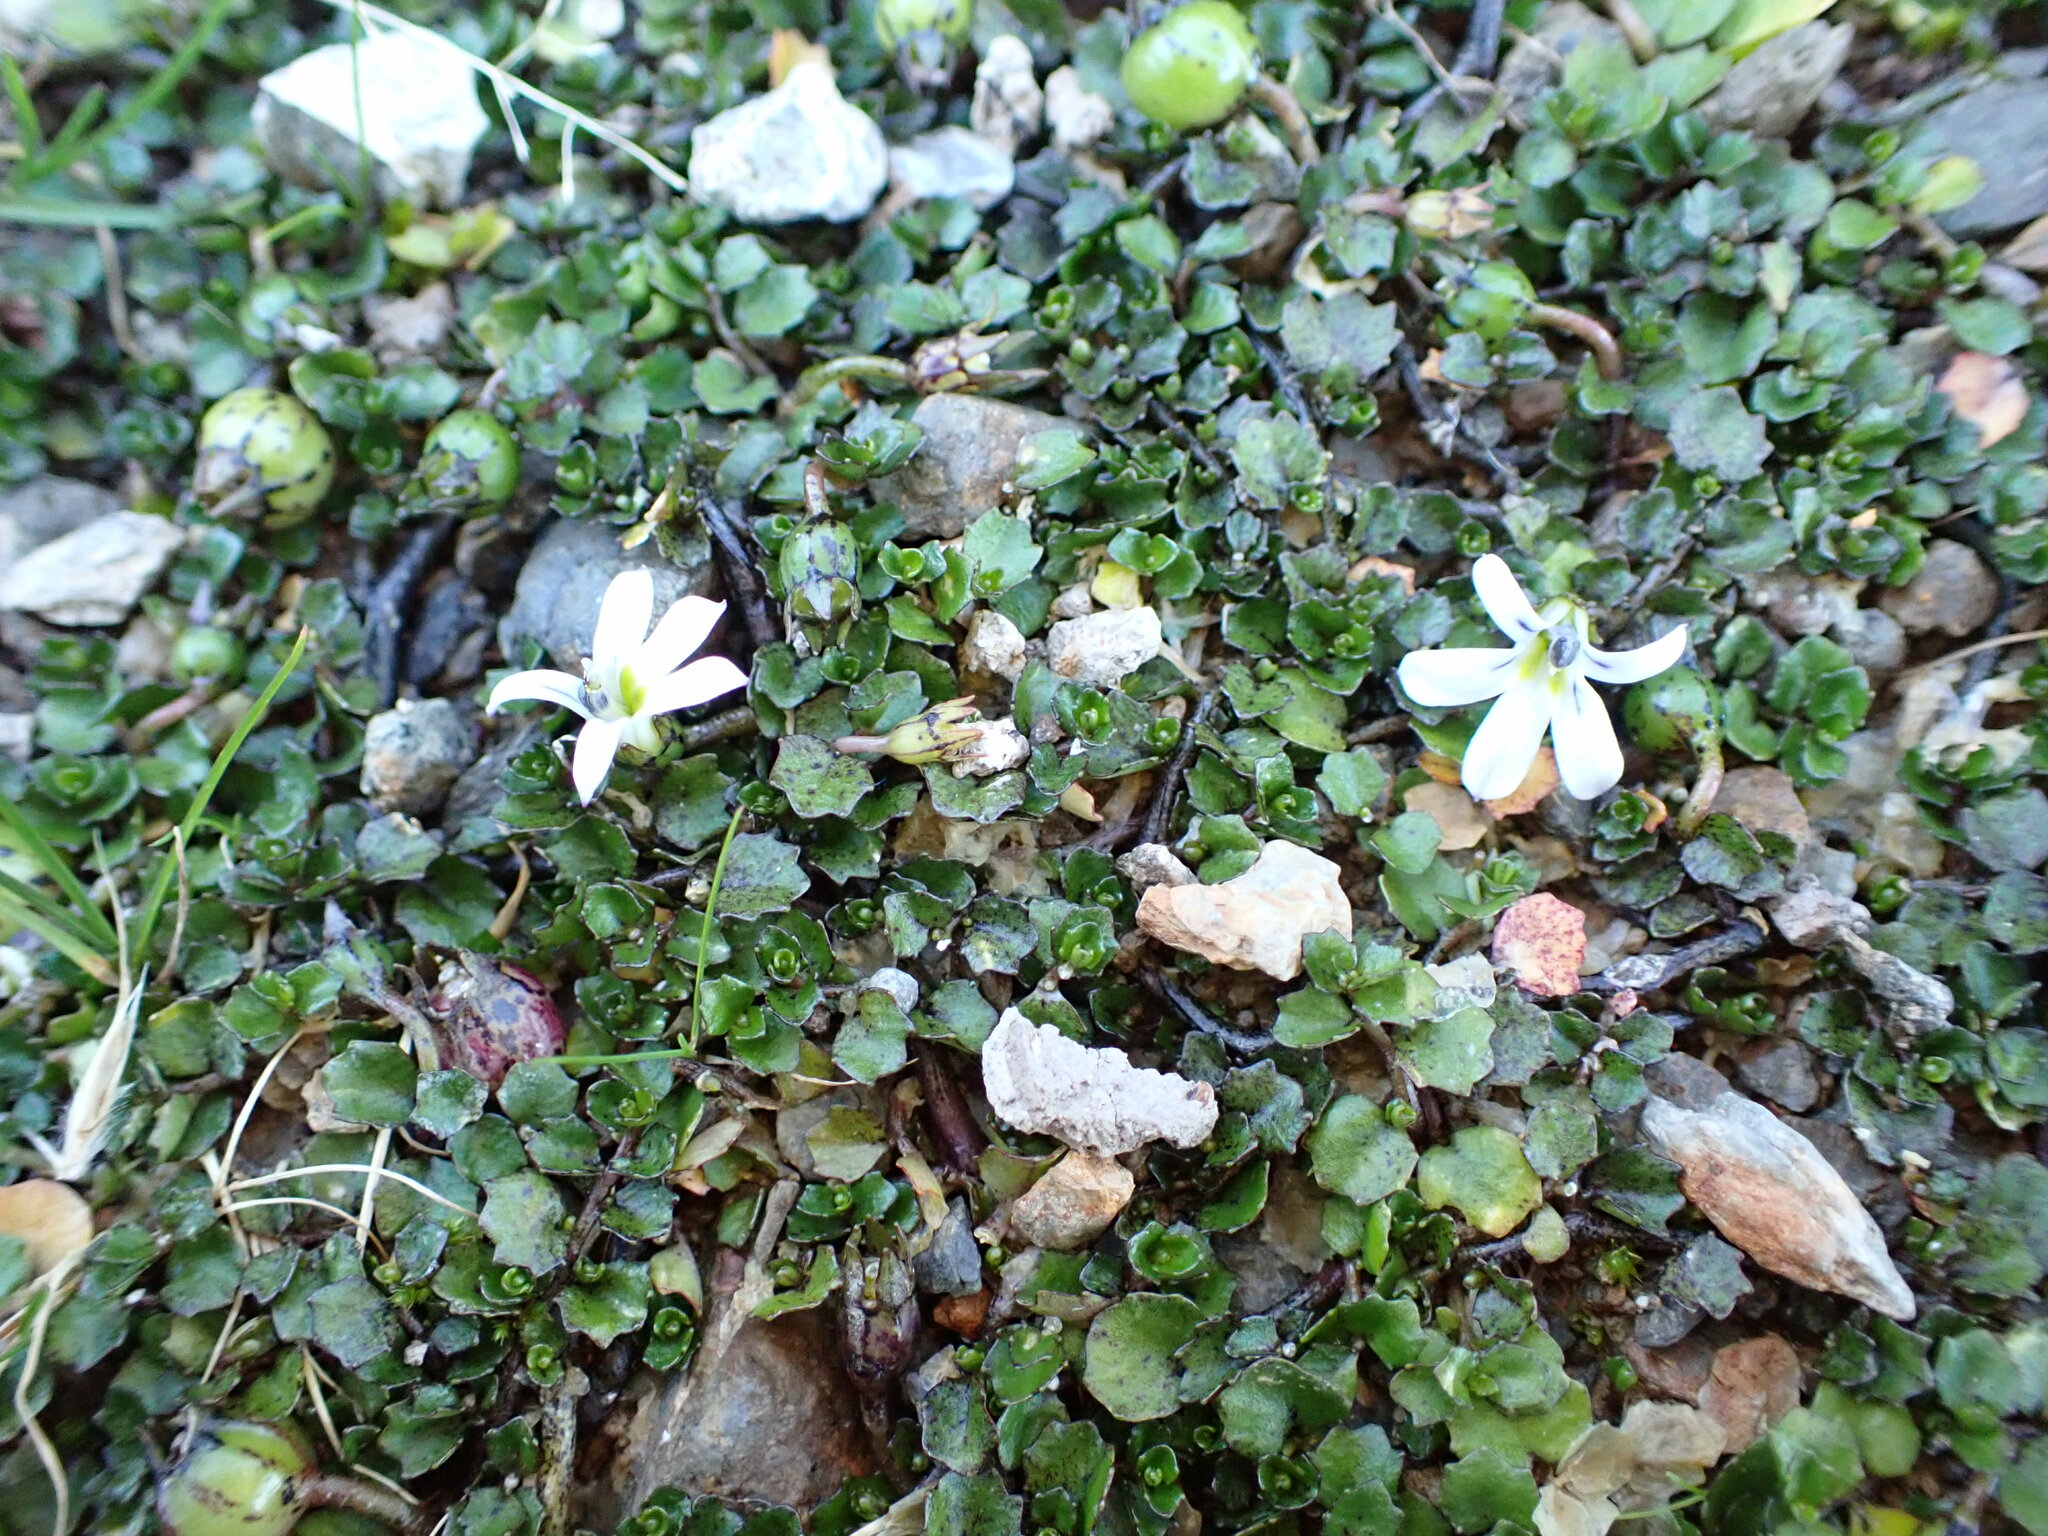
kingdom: Plantae
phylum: Tracheophyta
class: Magnoliopsida
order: Asterales
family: Campanulaceae
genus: Lobelia
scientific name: Lobelia angulata
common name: Lawn lobelia
